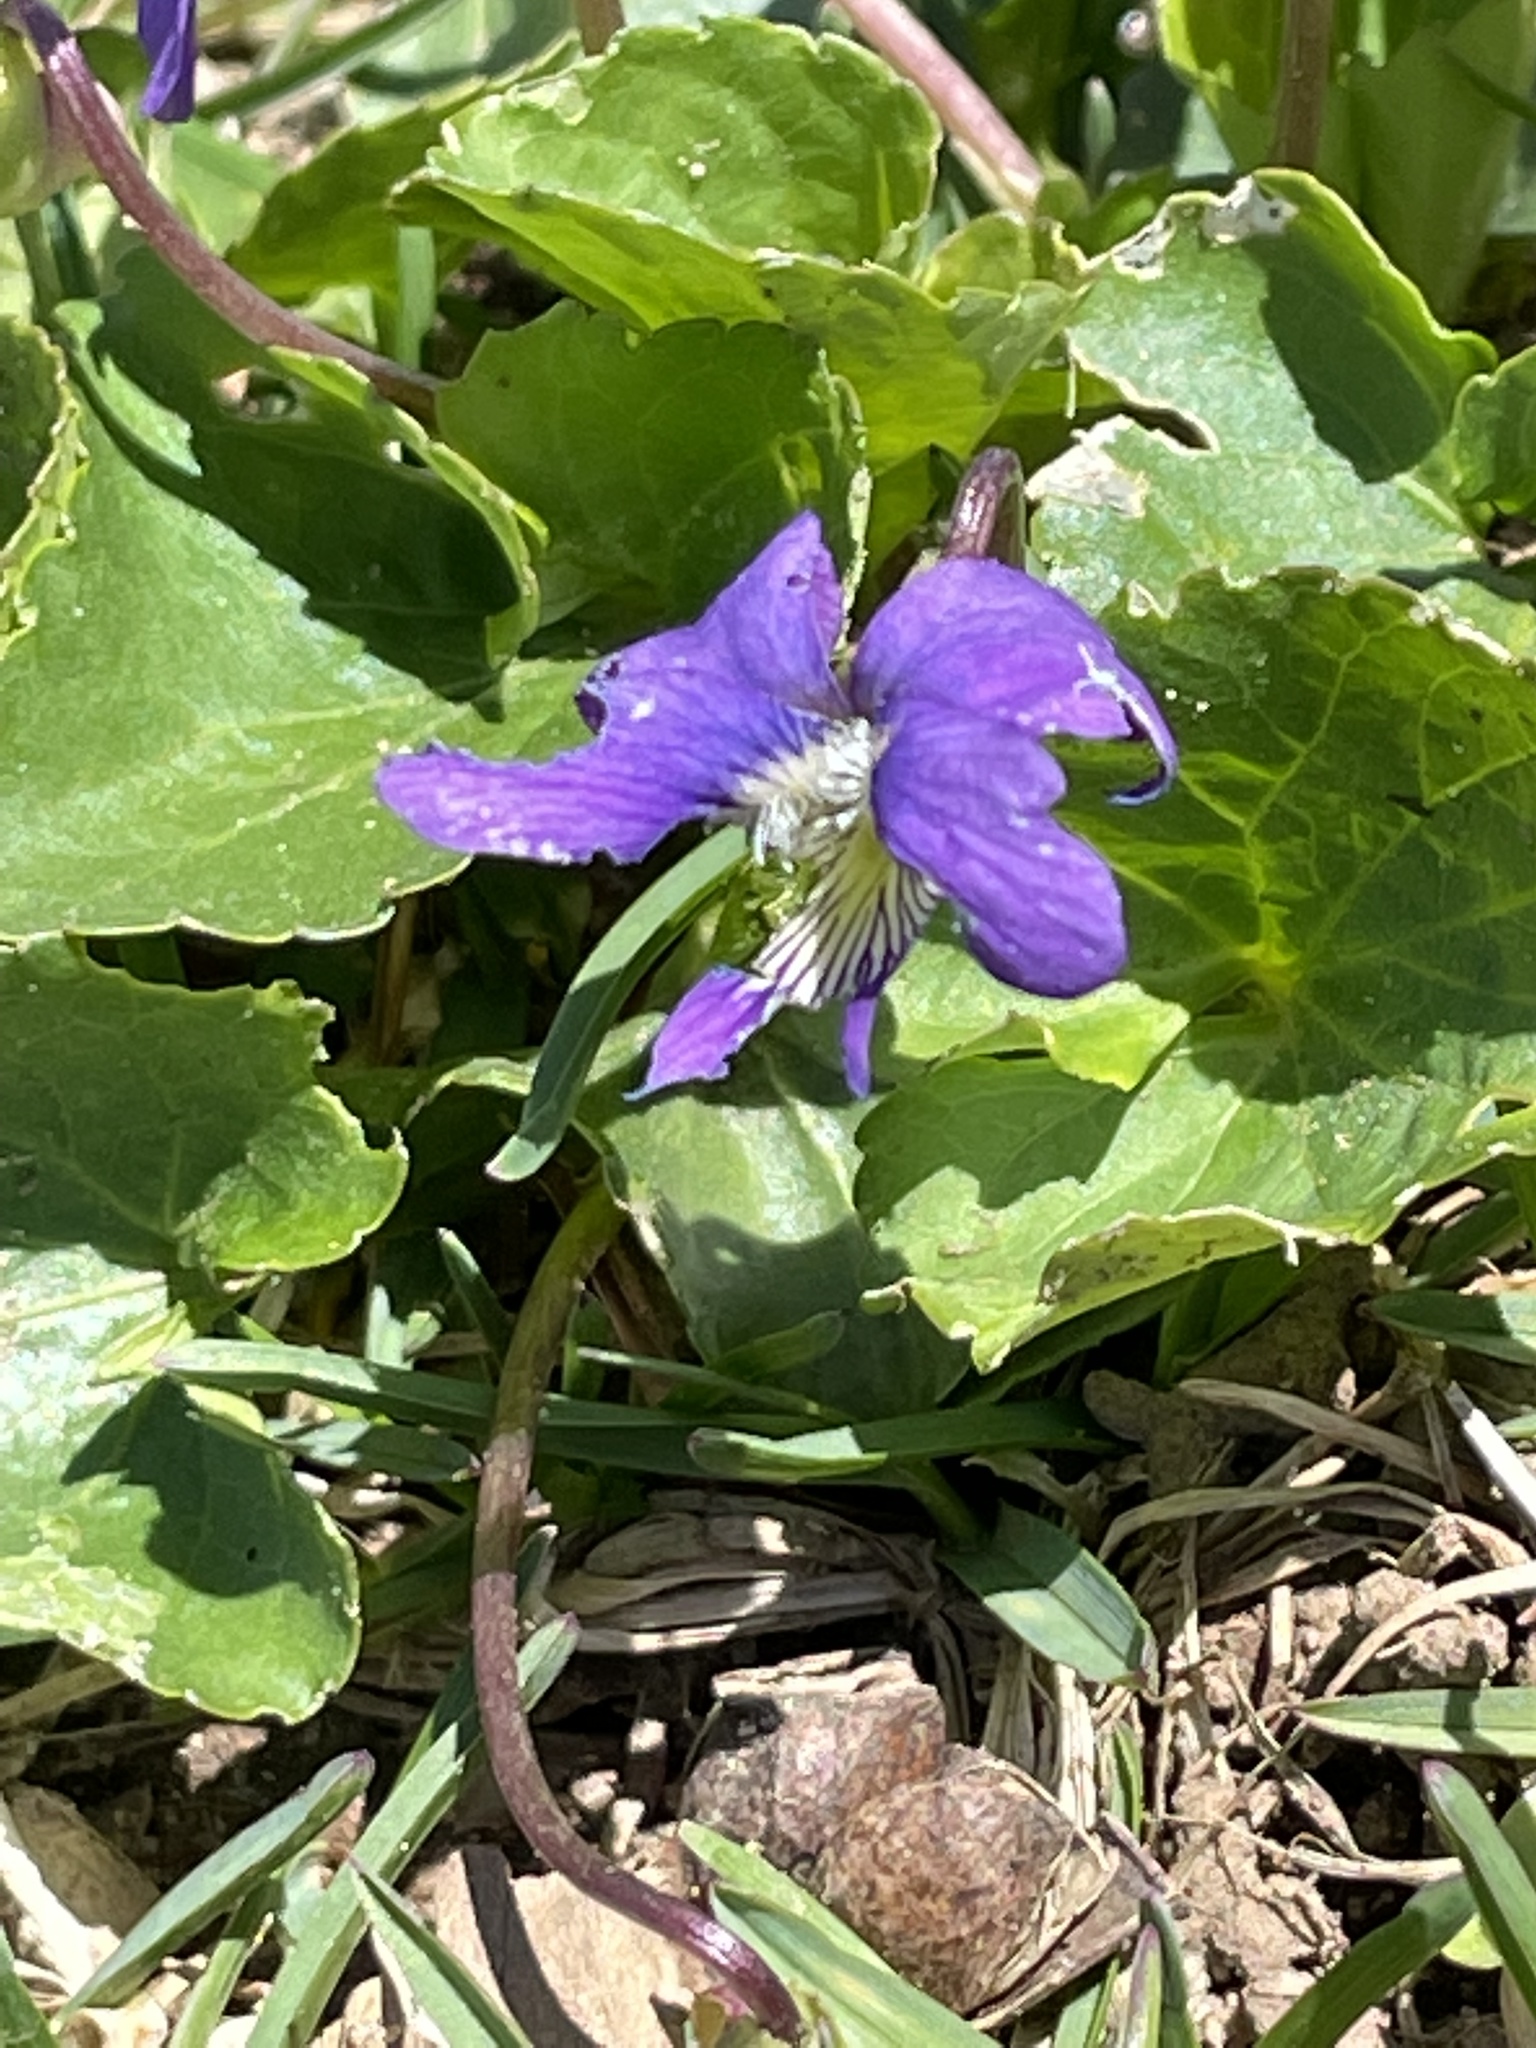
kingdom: Plantae
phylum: Tracheophyta
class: Magnoliopsida
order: Malpighiales
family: Violaceae
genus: Viola
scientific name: Viola sororia
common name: Dooryard violet
